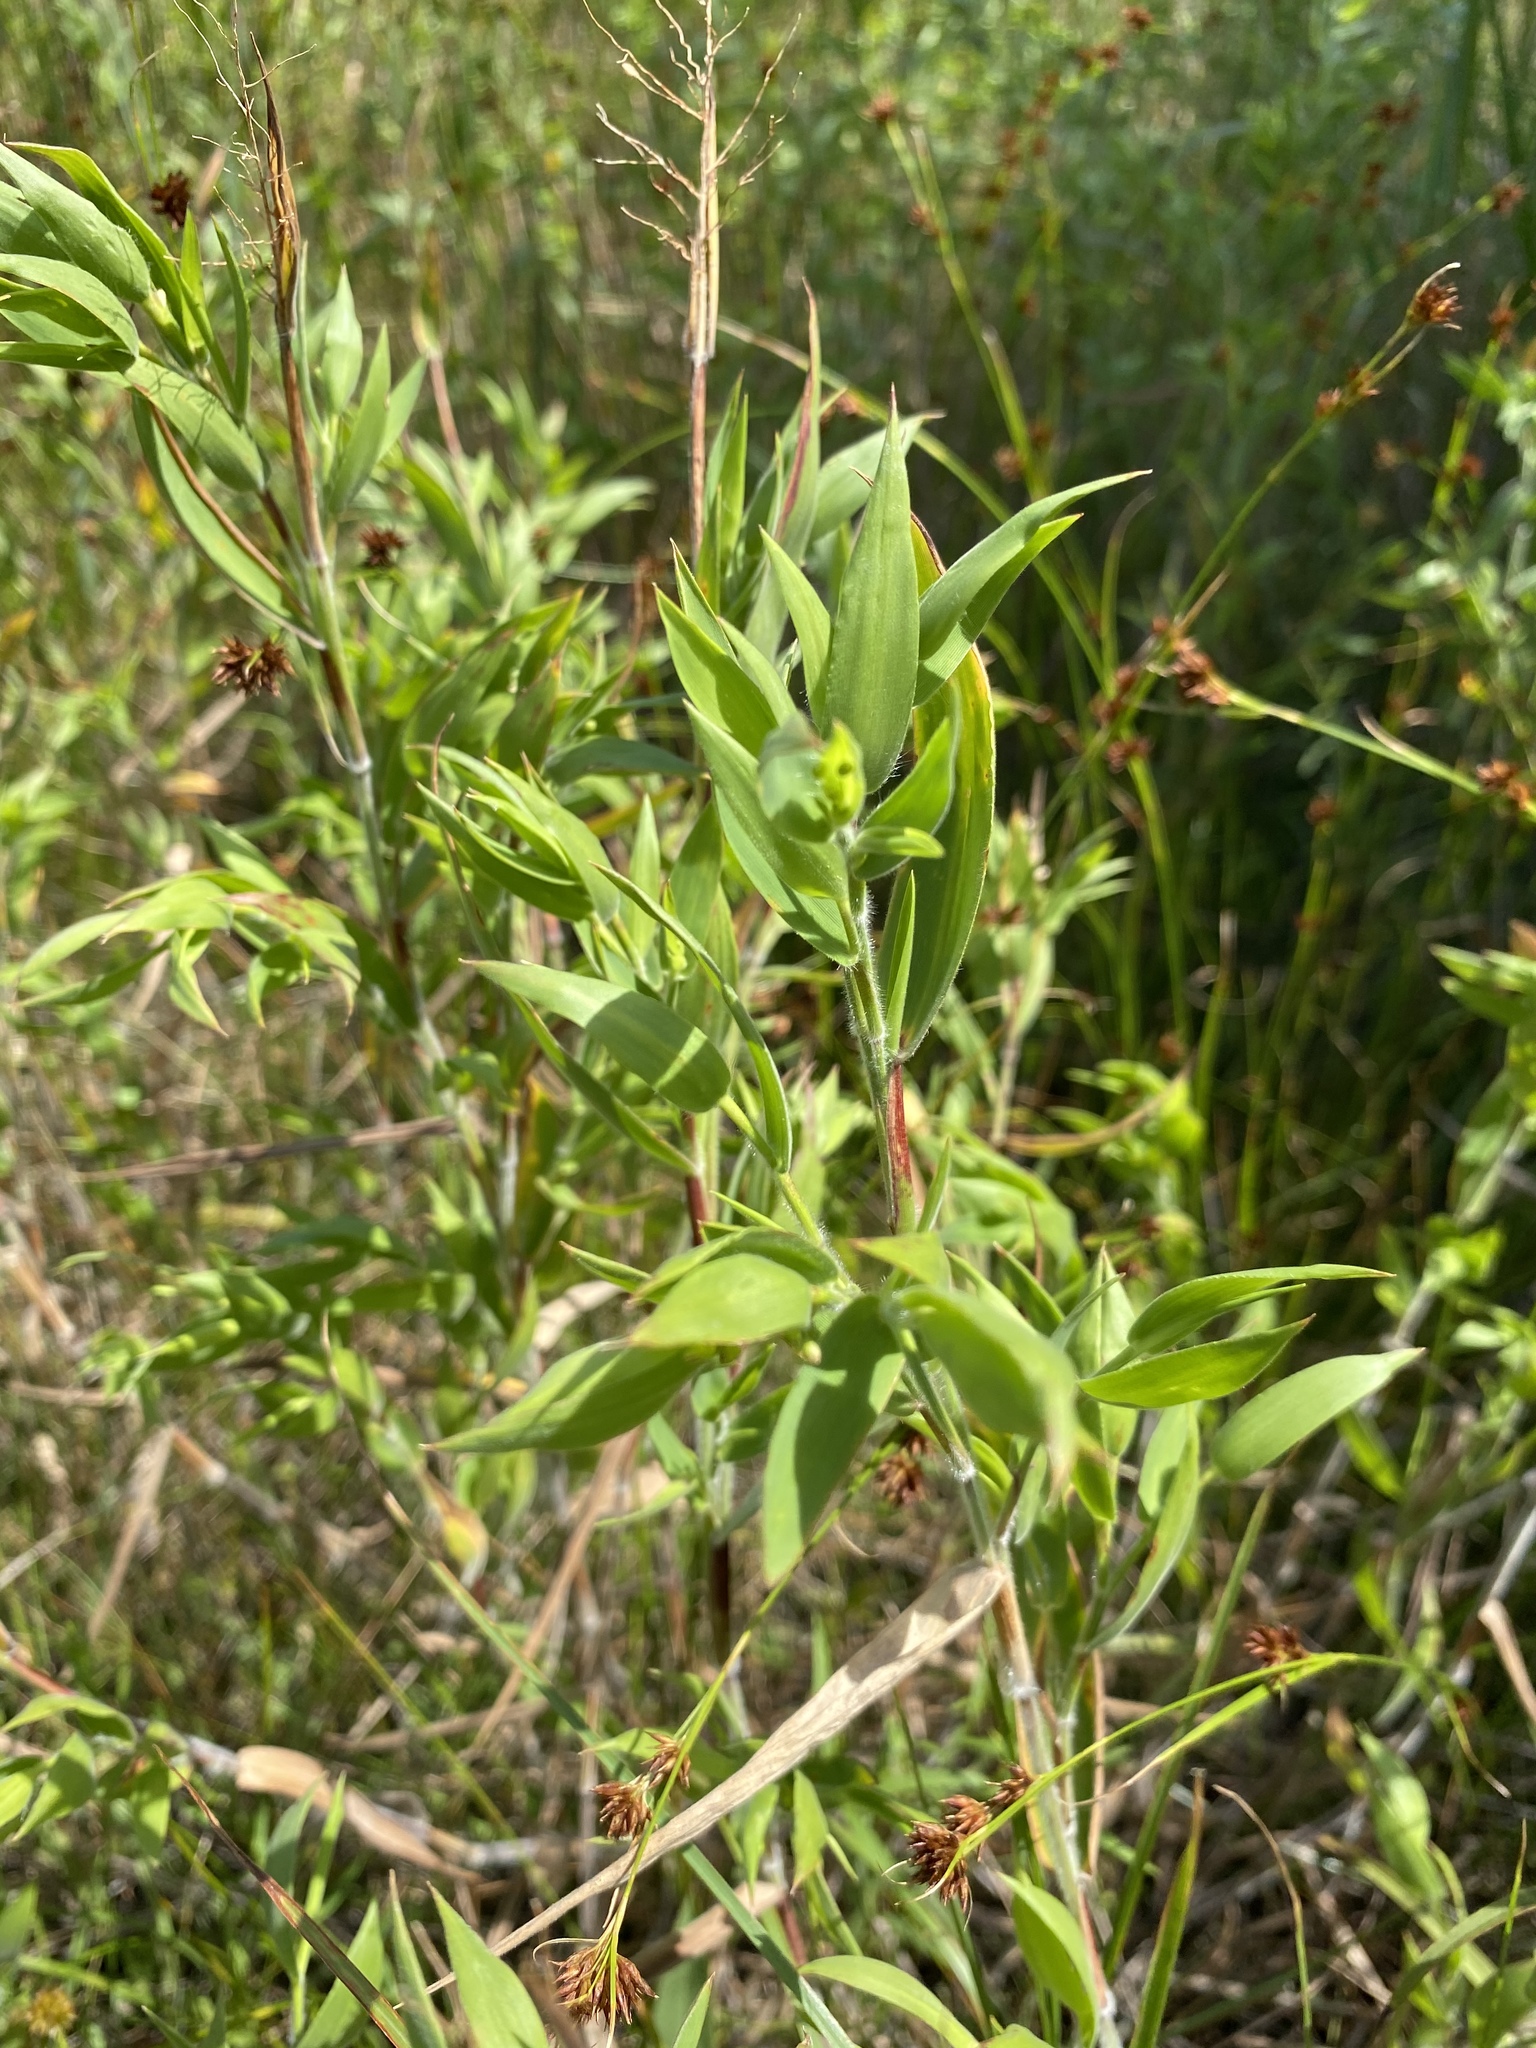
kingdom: Plantae
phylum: Tracheophyta
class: Liliopsida
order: Poales
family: Poaceae
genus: Dichanthelium
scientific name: Dichanthelium scoparium
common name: Velvety panic grass
